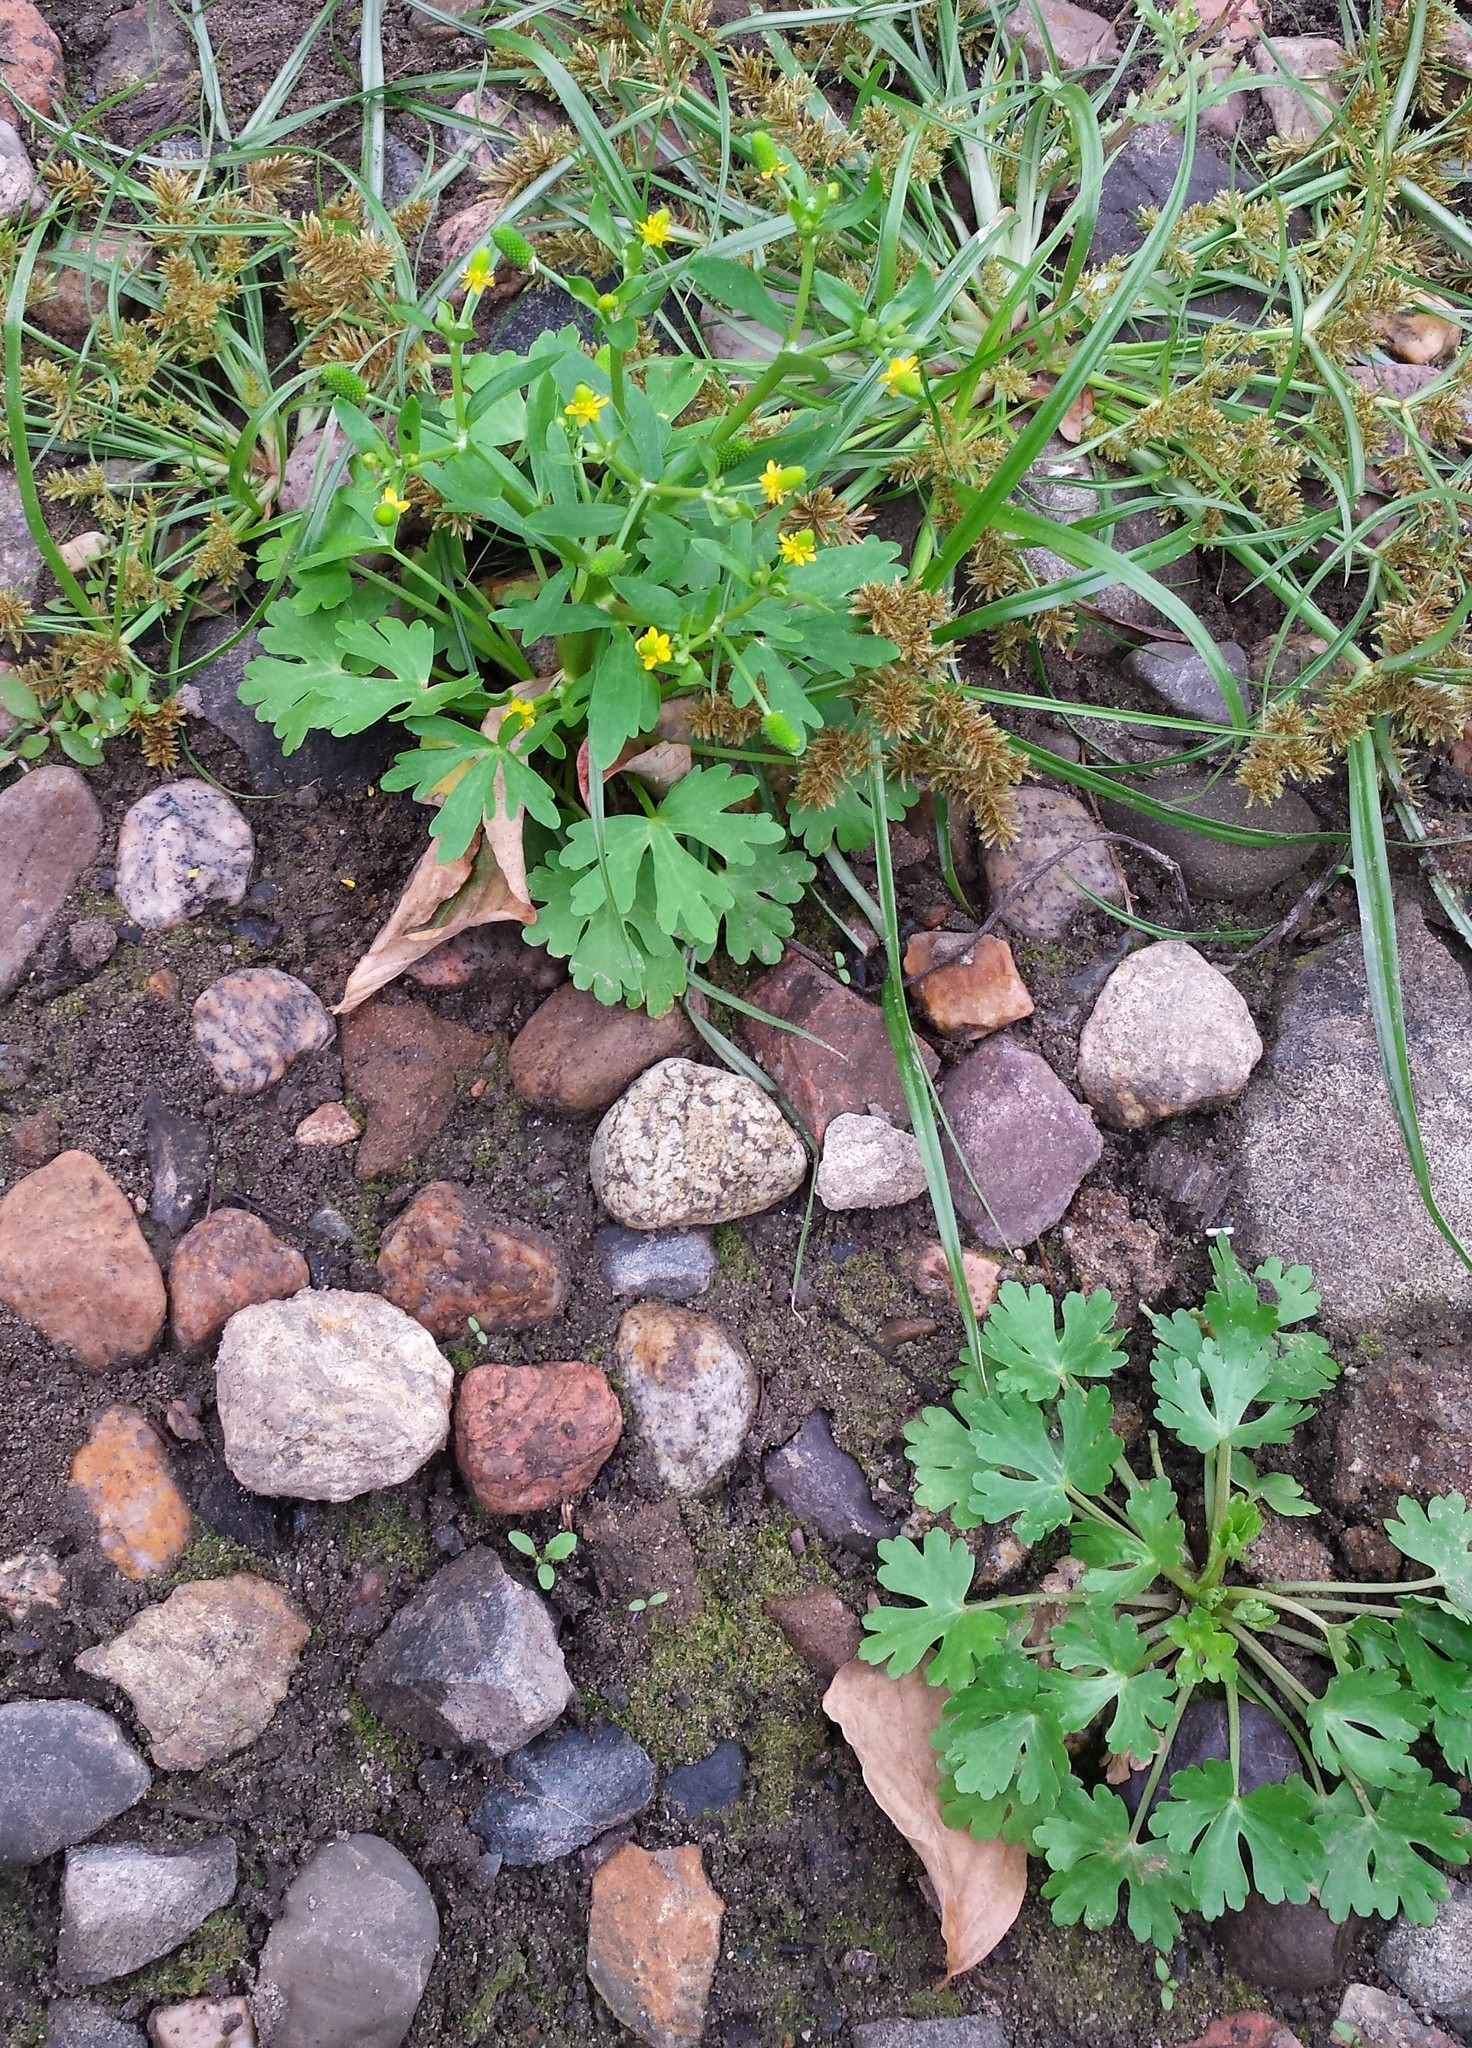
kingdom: Plantae
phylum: Tracheophyta
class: Magnoliopsida
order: Ranunculales
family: Ranunculaceae
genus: Ranunculus
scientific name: Ranunculus sceleratus
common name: Celery-leaved buttercup
